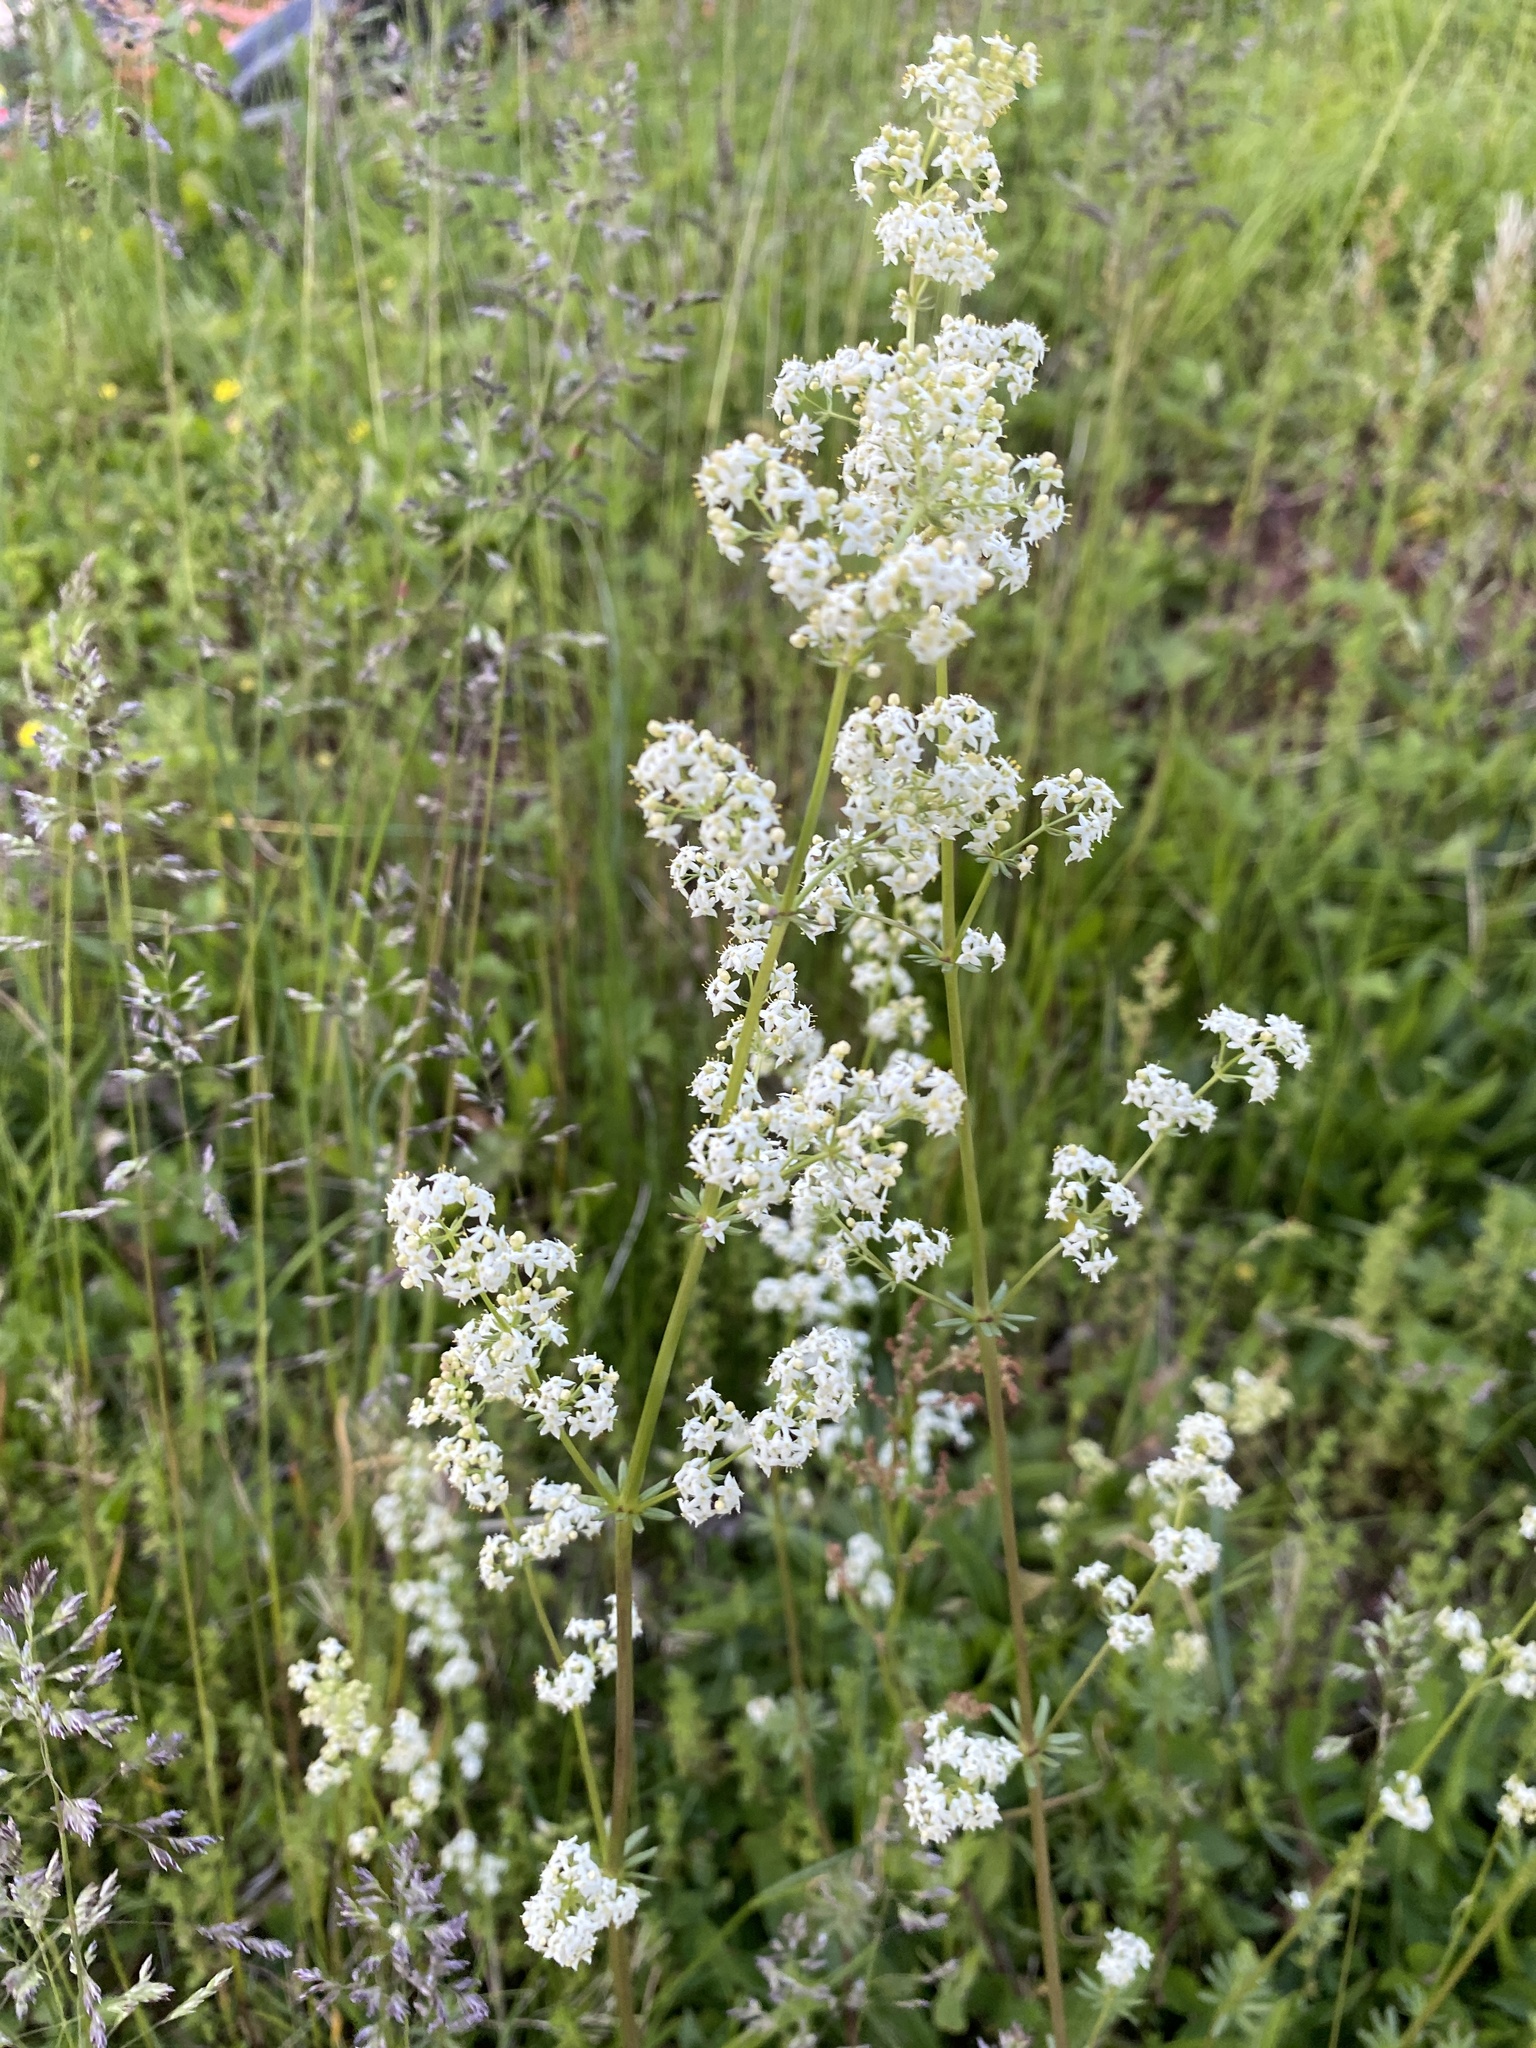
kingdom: Plantae
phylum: Tracheophyta
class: Magnoliopsida
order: Gentianales
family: Rubiaceae
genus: Galium
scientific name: Galium mollugo
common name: Hedge bedstraw
